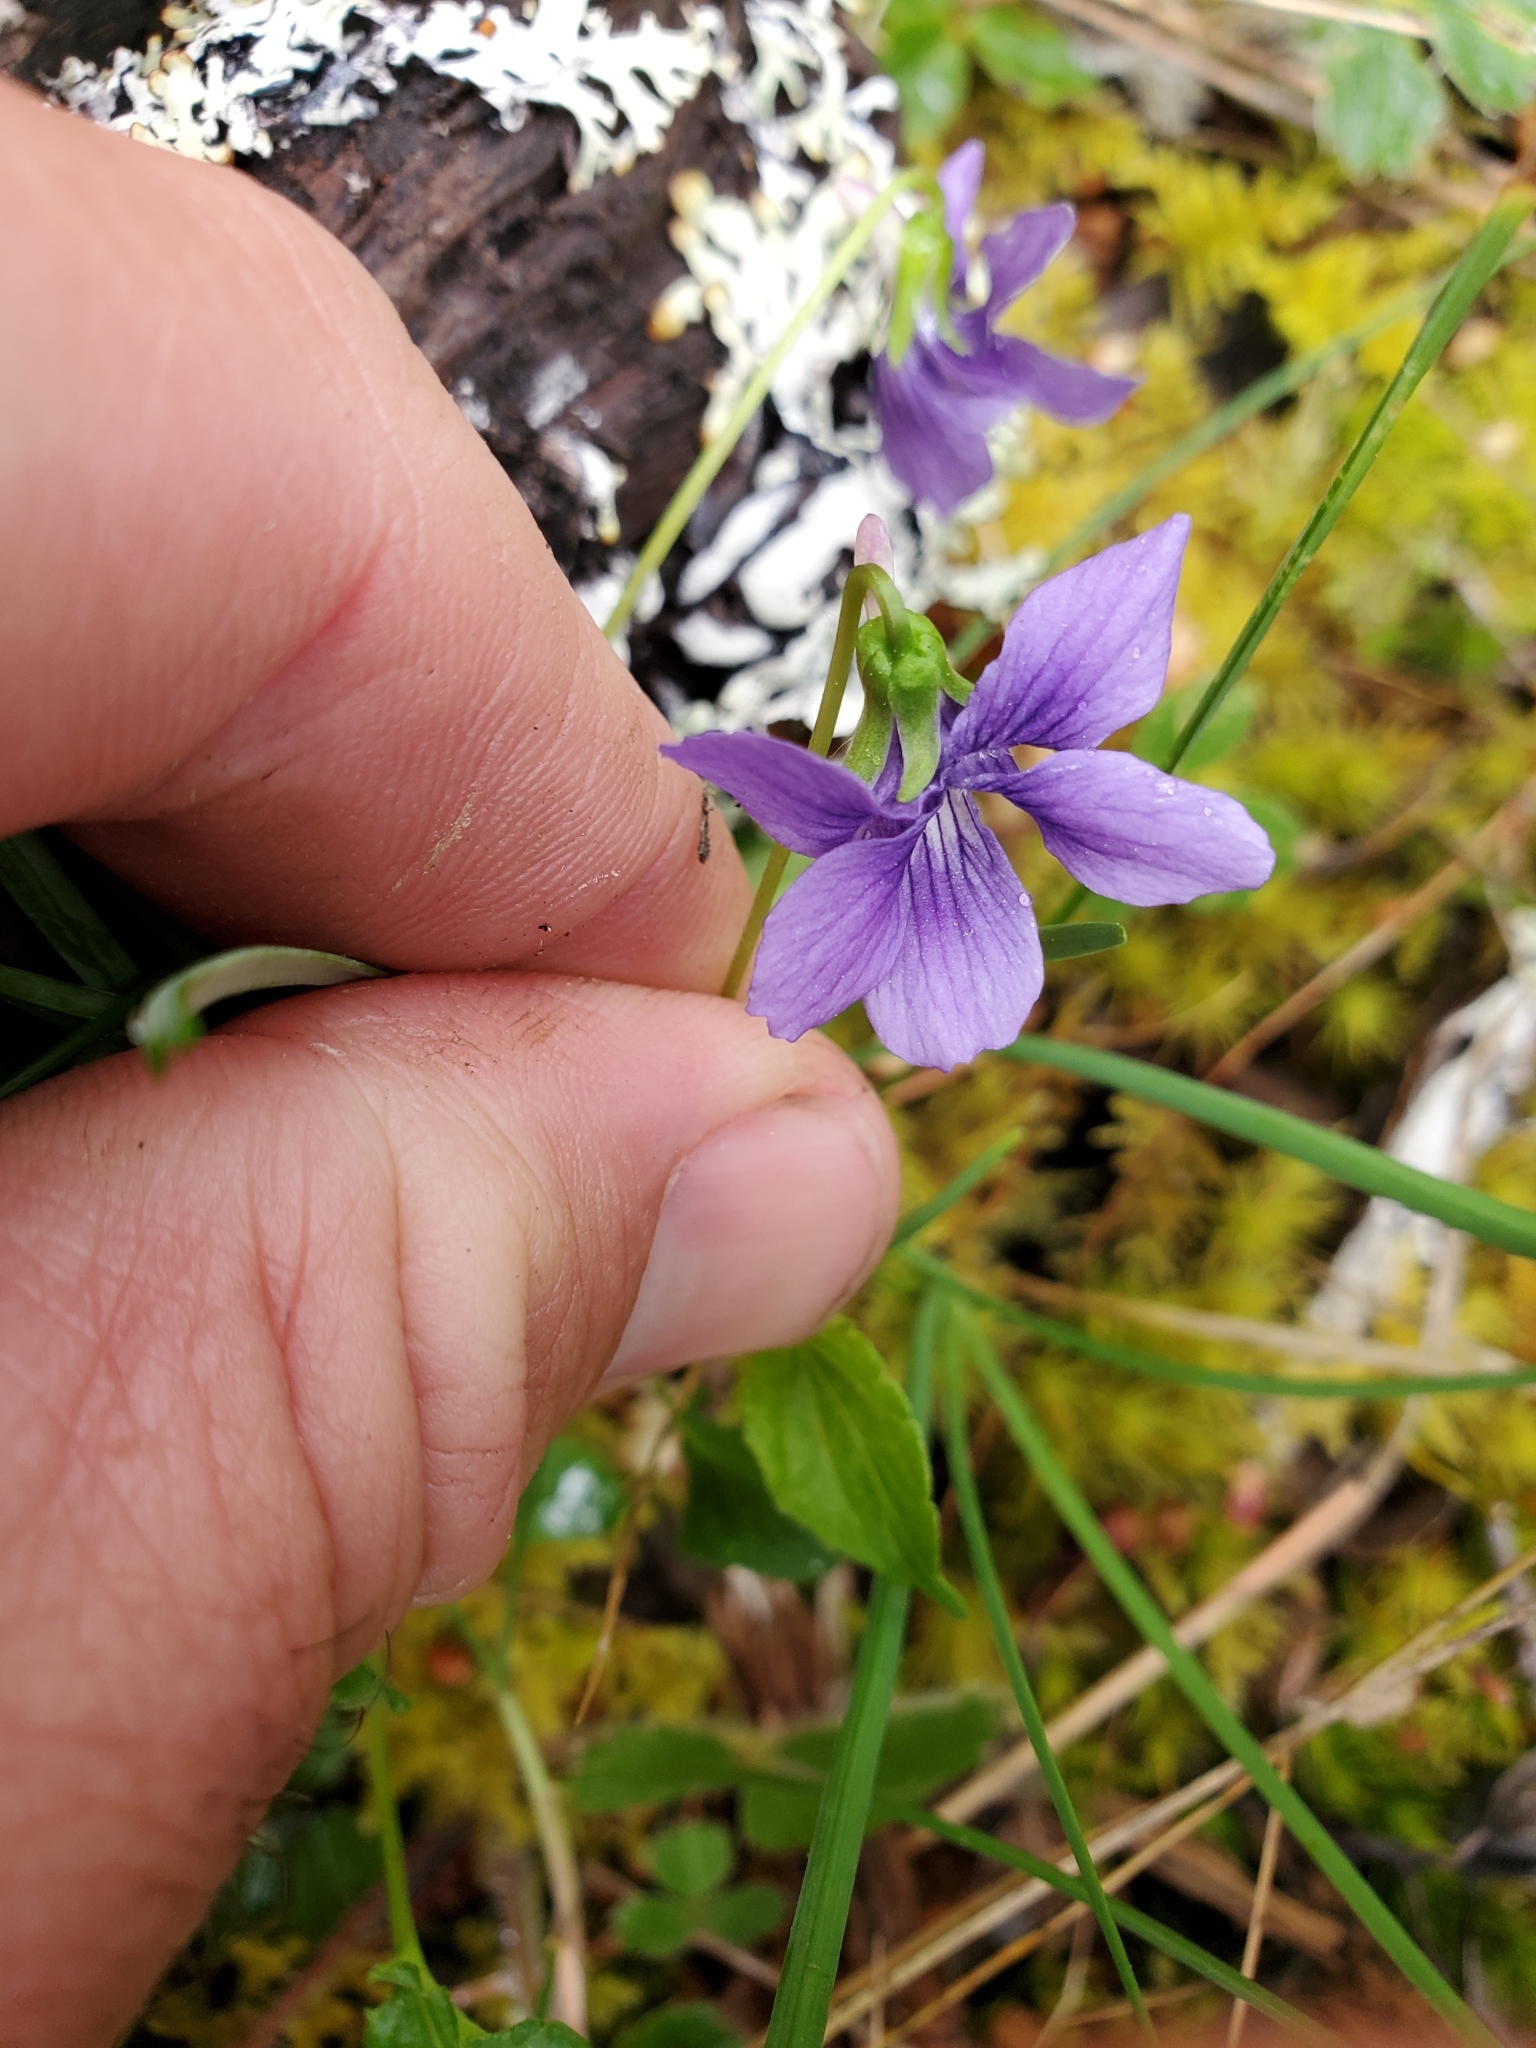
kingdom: Plantae
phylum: Tracheophyta
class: Magnoliopsida
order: Malpighiales
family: Violaceae
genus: Viola
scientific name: Viola adunca
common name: Sand violet
